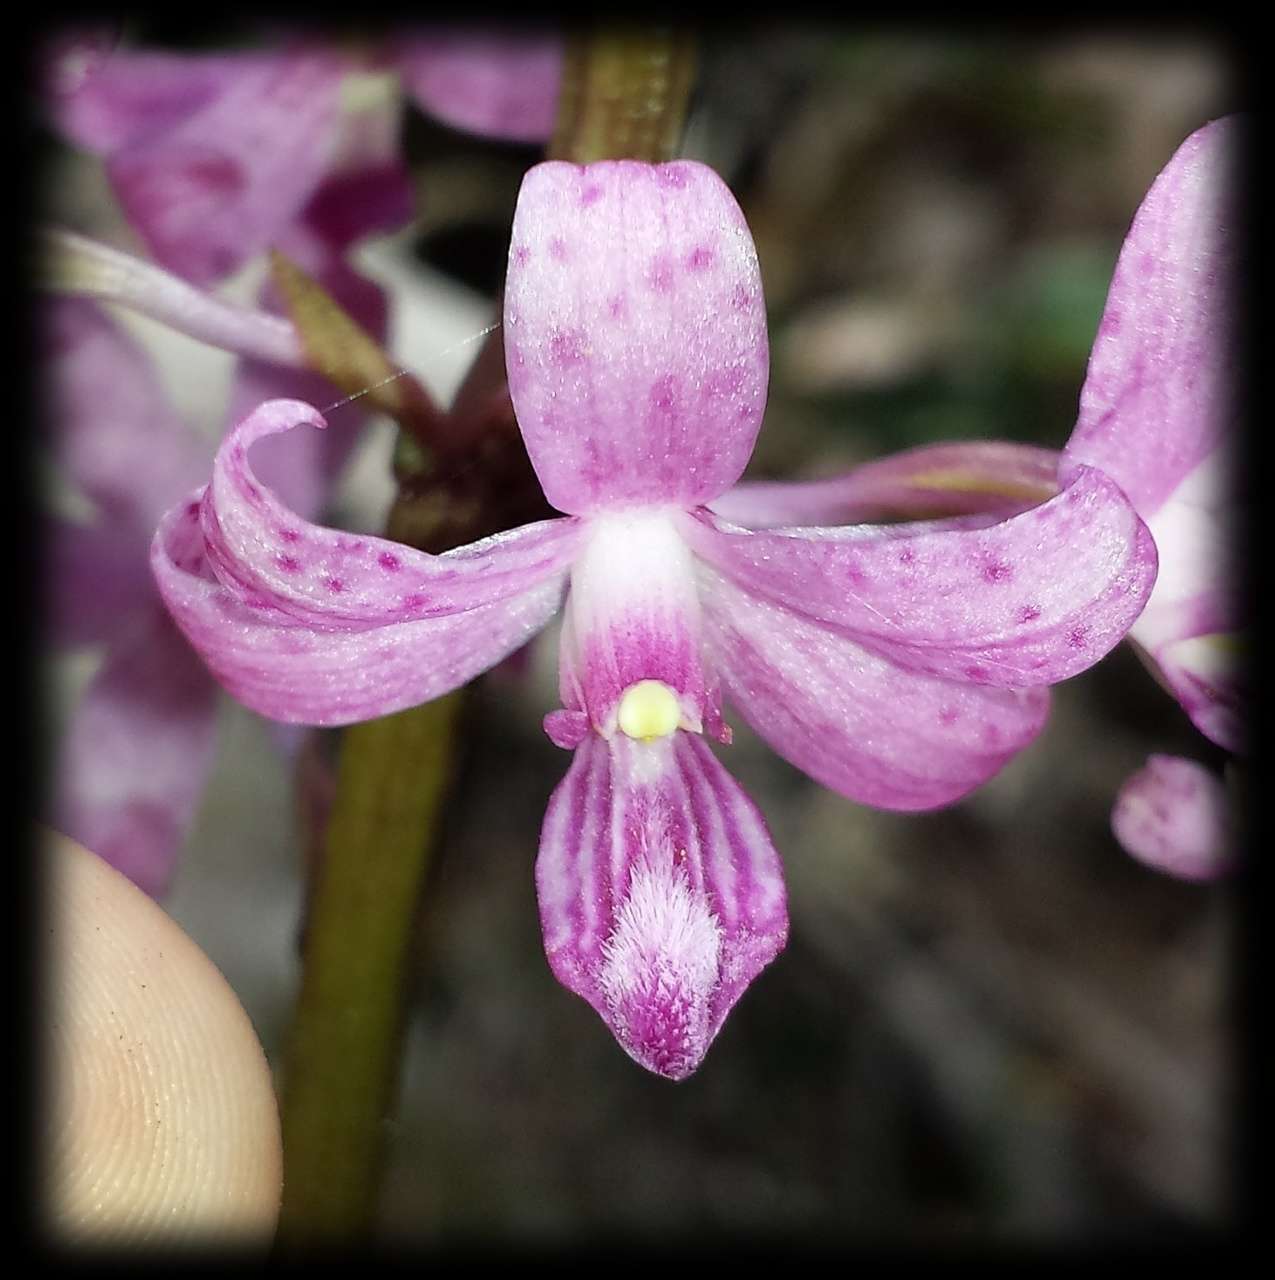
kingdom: Plantae
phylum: Tracheophyta
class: Liliopsida
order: Asparagales
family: Orchidaceae
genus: Dipodium
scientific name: Dipodium roseum
